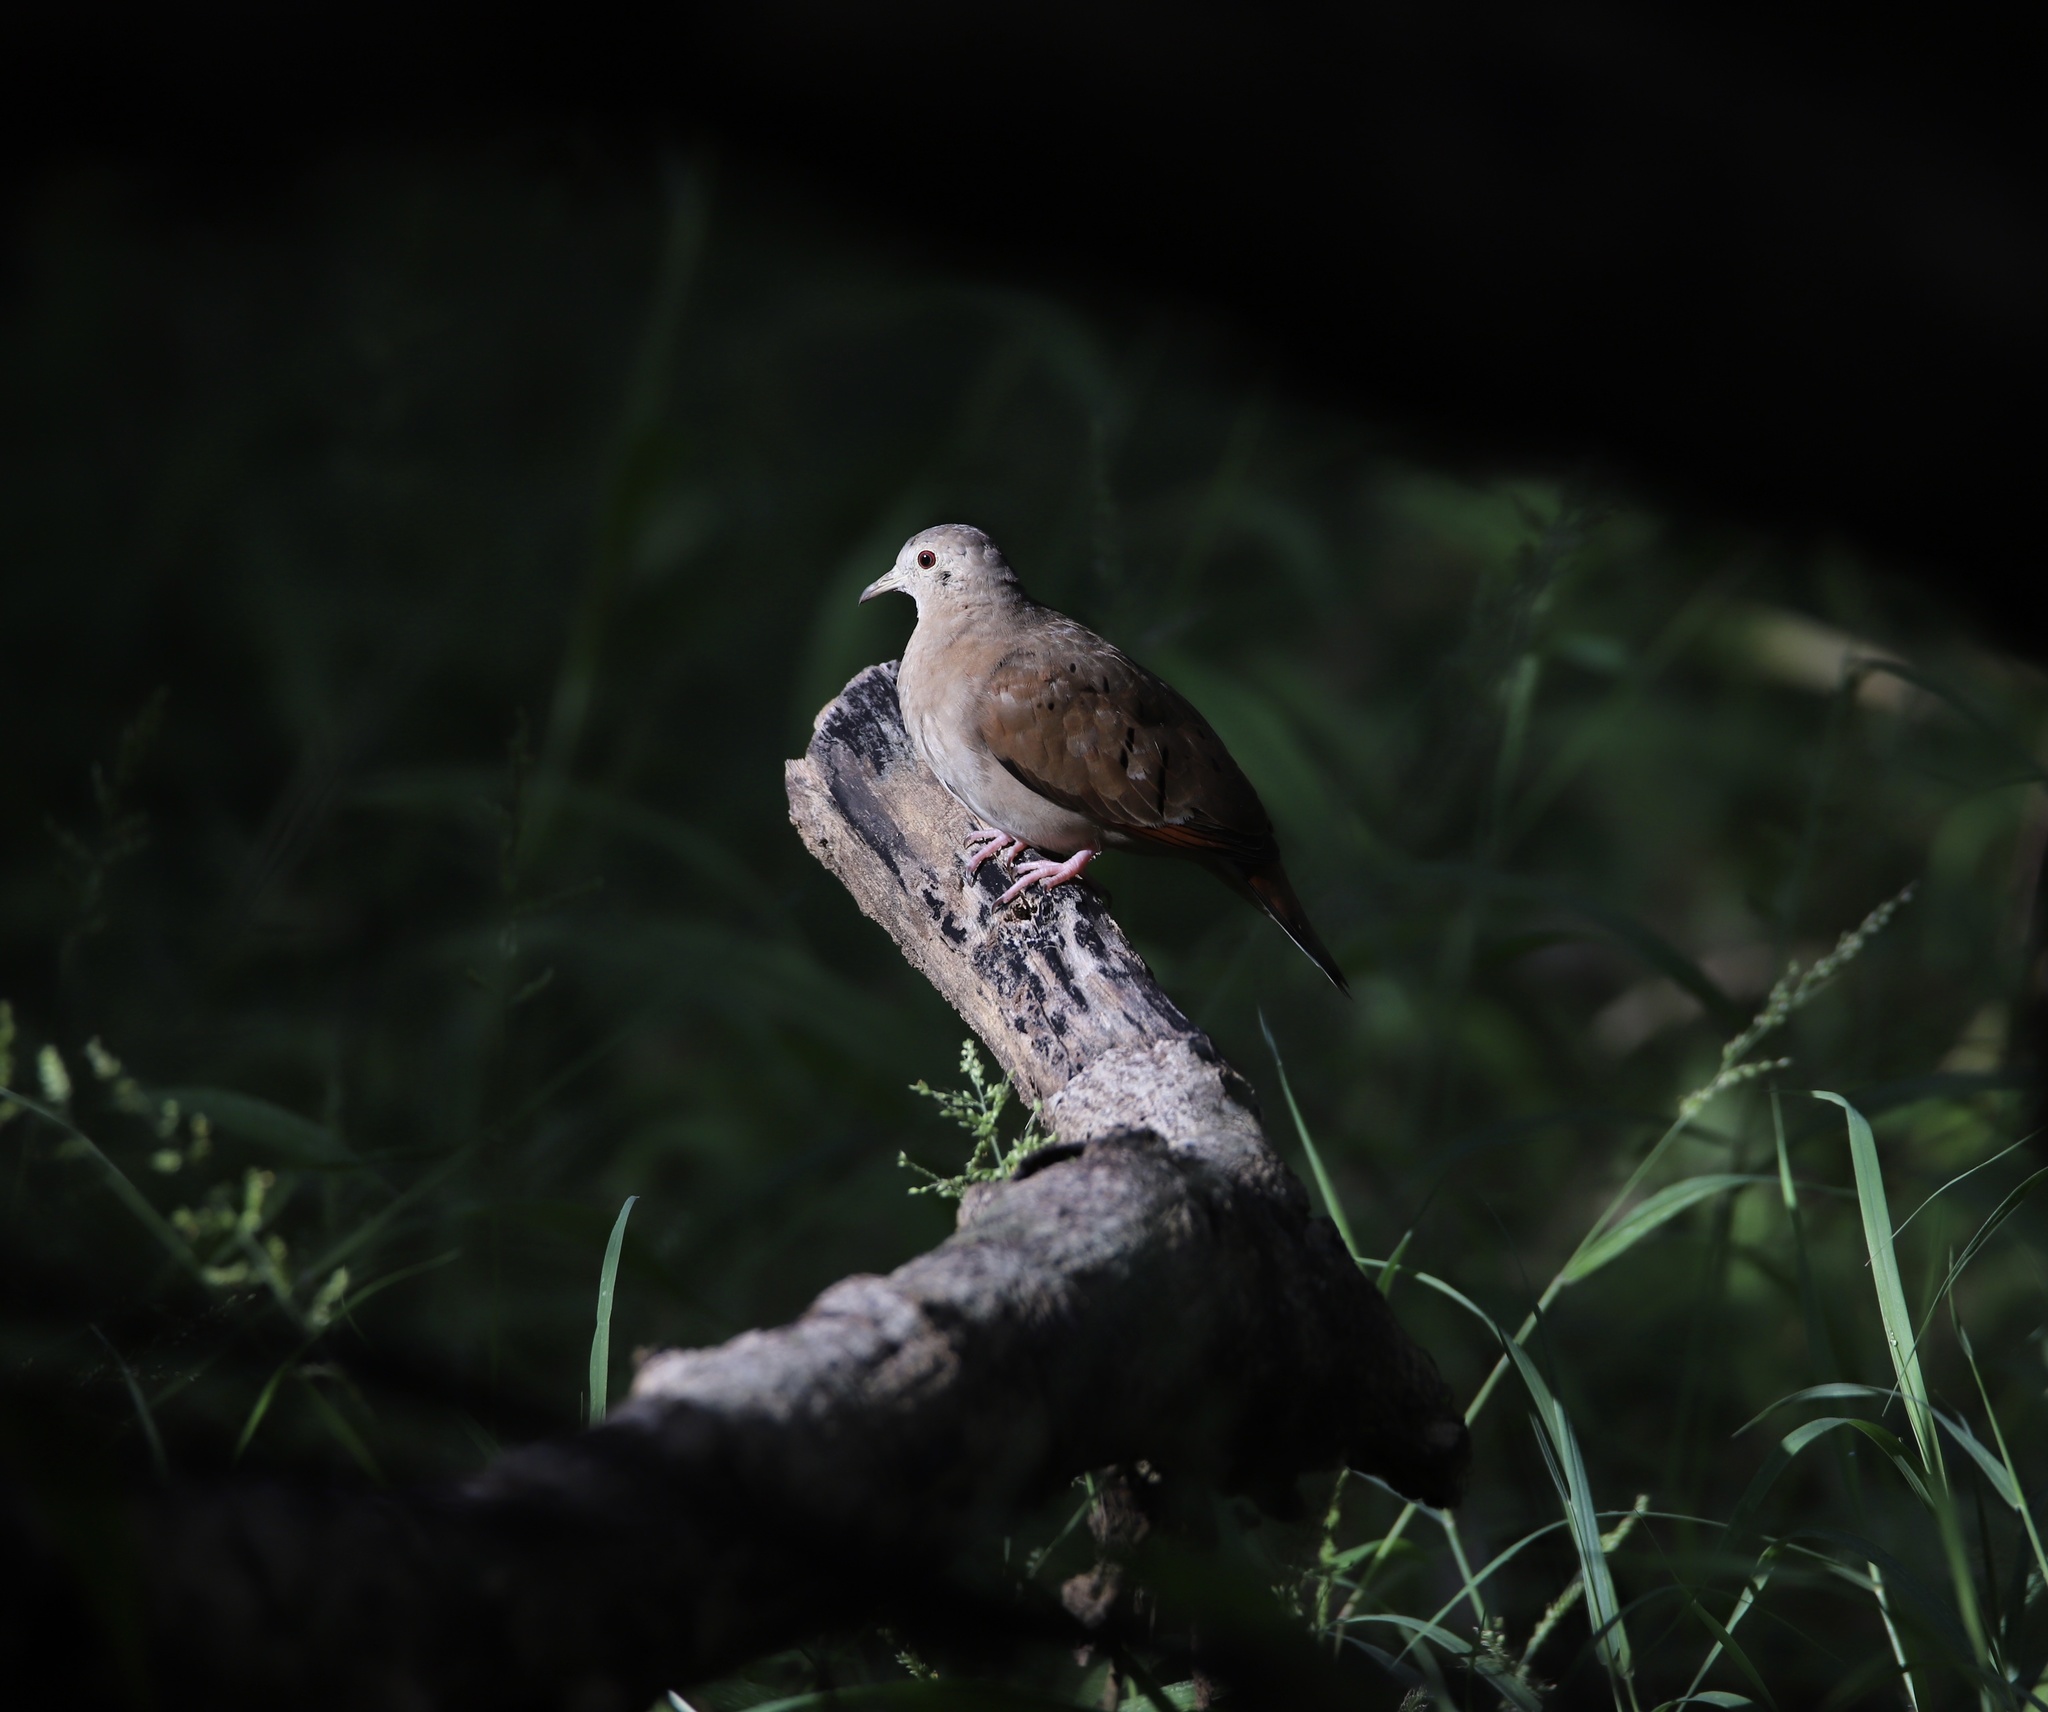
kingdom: Animalia
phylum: Chordata
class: Aves
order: Columbiformes
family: Columbidae
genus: Columbina
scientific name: Columbina talpacoti
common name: Ruddy ground dove
